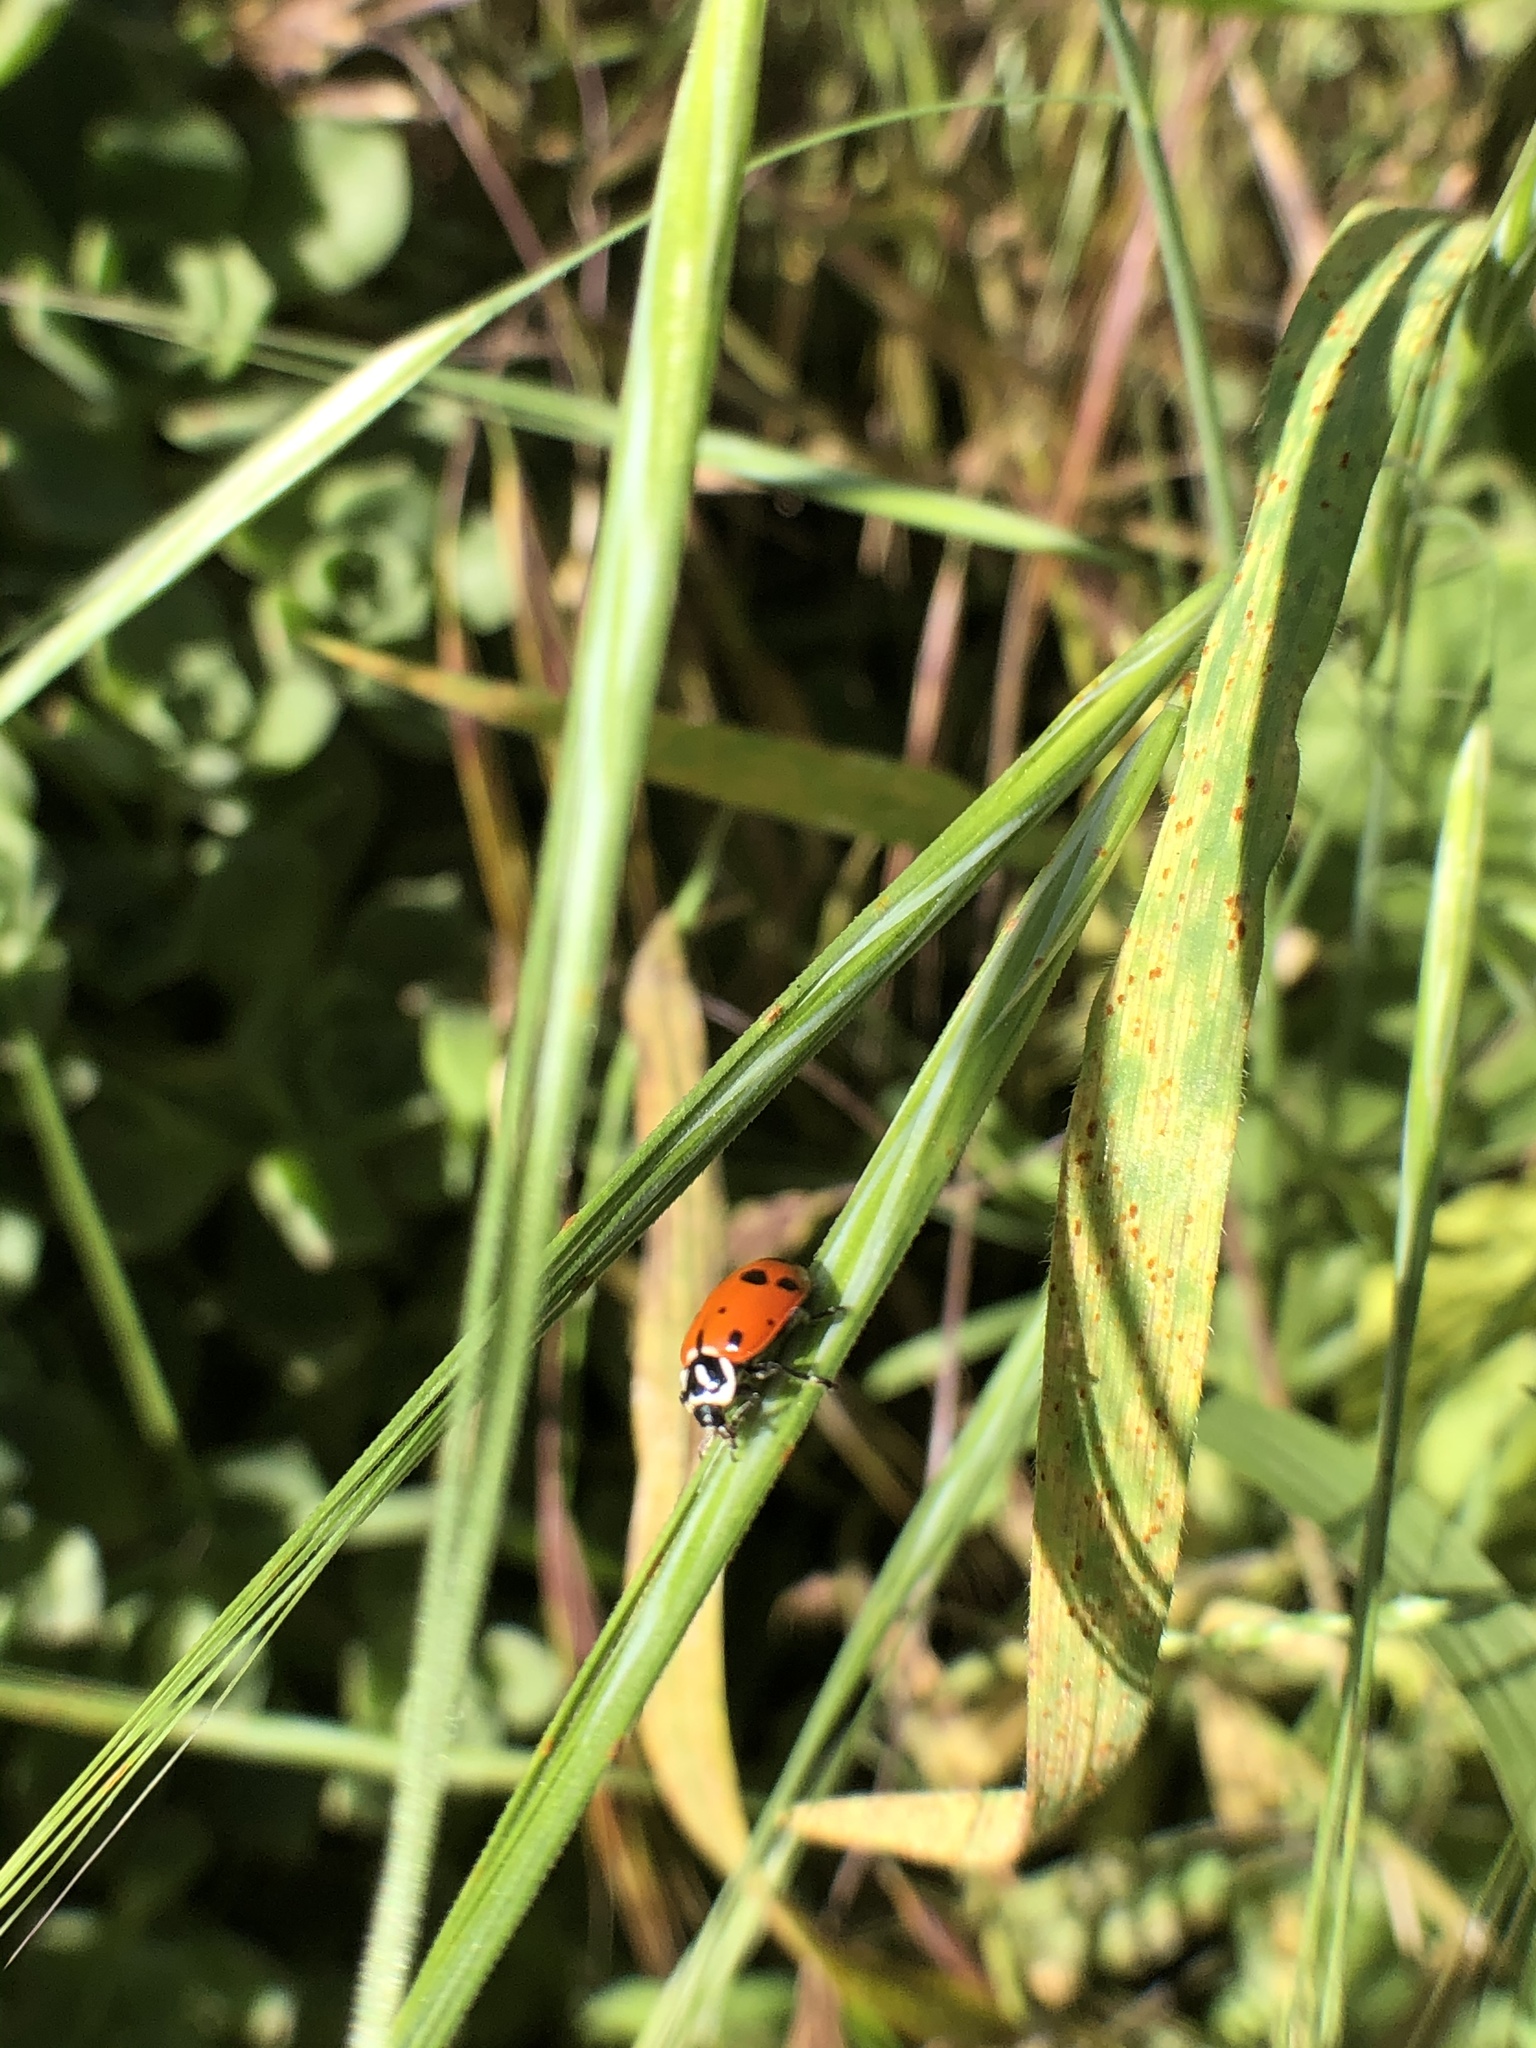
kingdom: Animalia
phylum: Arthropoda
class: Insecta
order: Coleoptera
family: Coccinellidae
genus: Hippodamia
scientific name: Hippodamia convergens
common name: Convergent lady beetle
